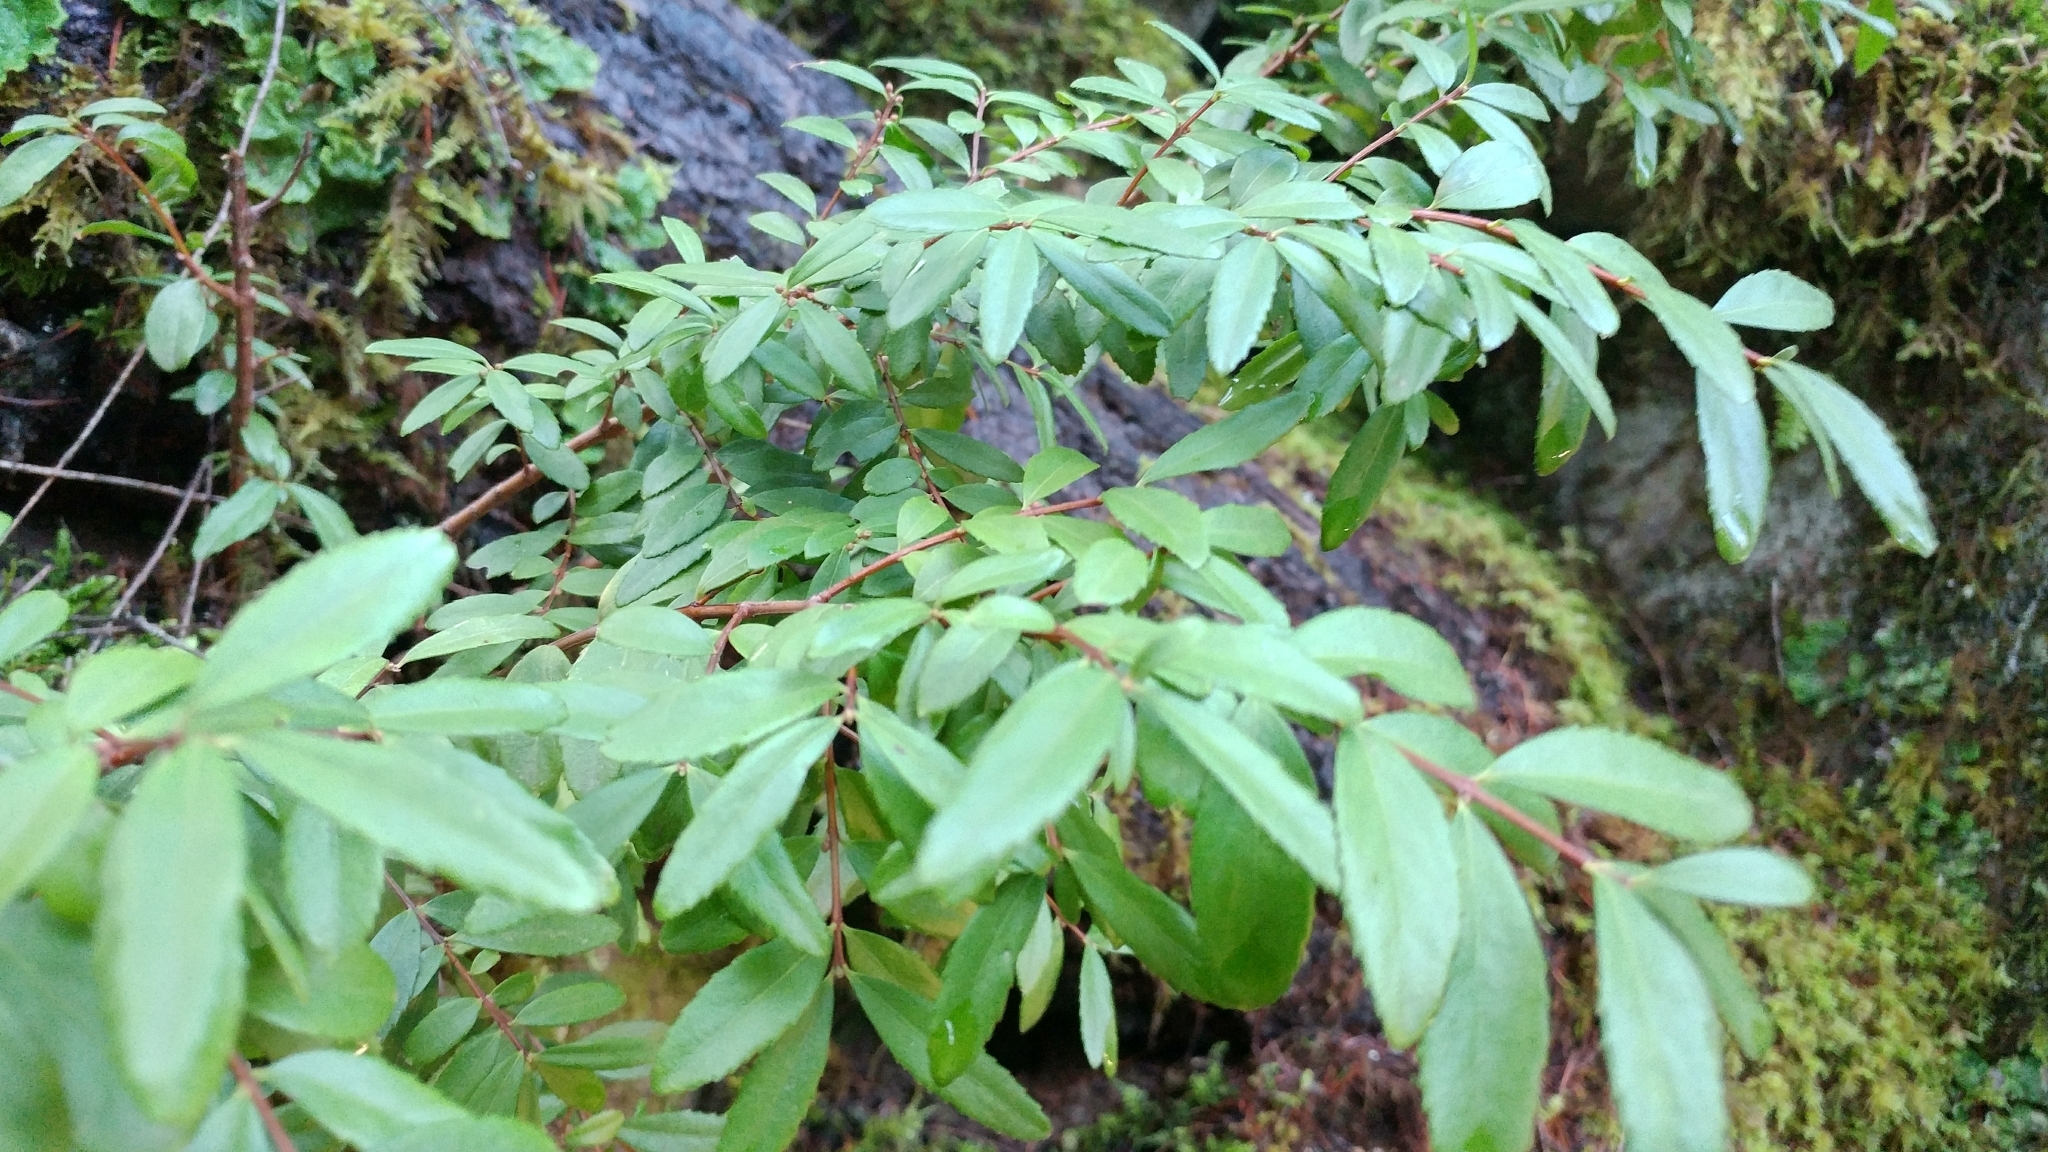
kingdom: Plantae
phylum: Tracheophyta
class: Magnoliopsida
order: Celastrales
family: Celastraceae
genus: Paxistima
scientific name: Paxistima myrsinites
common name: Mountain-lover
